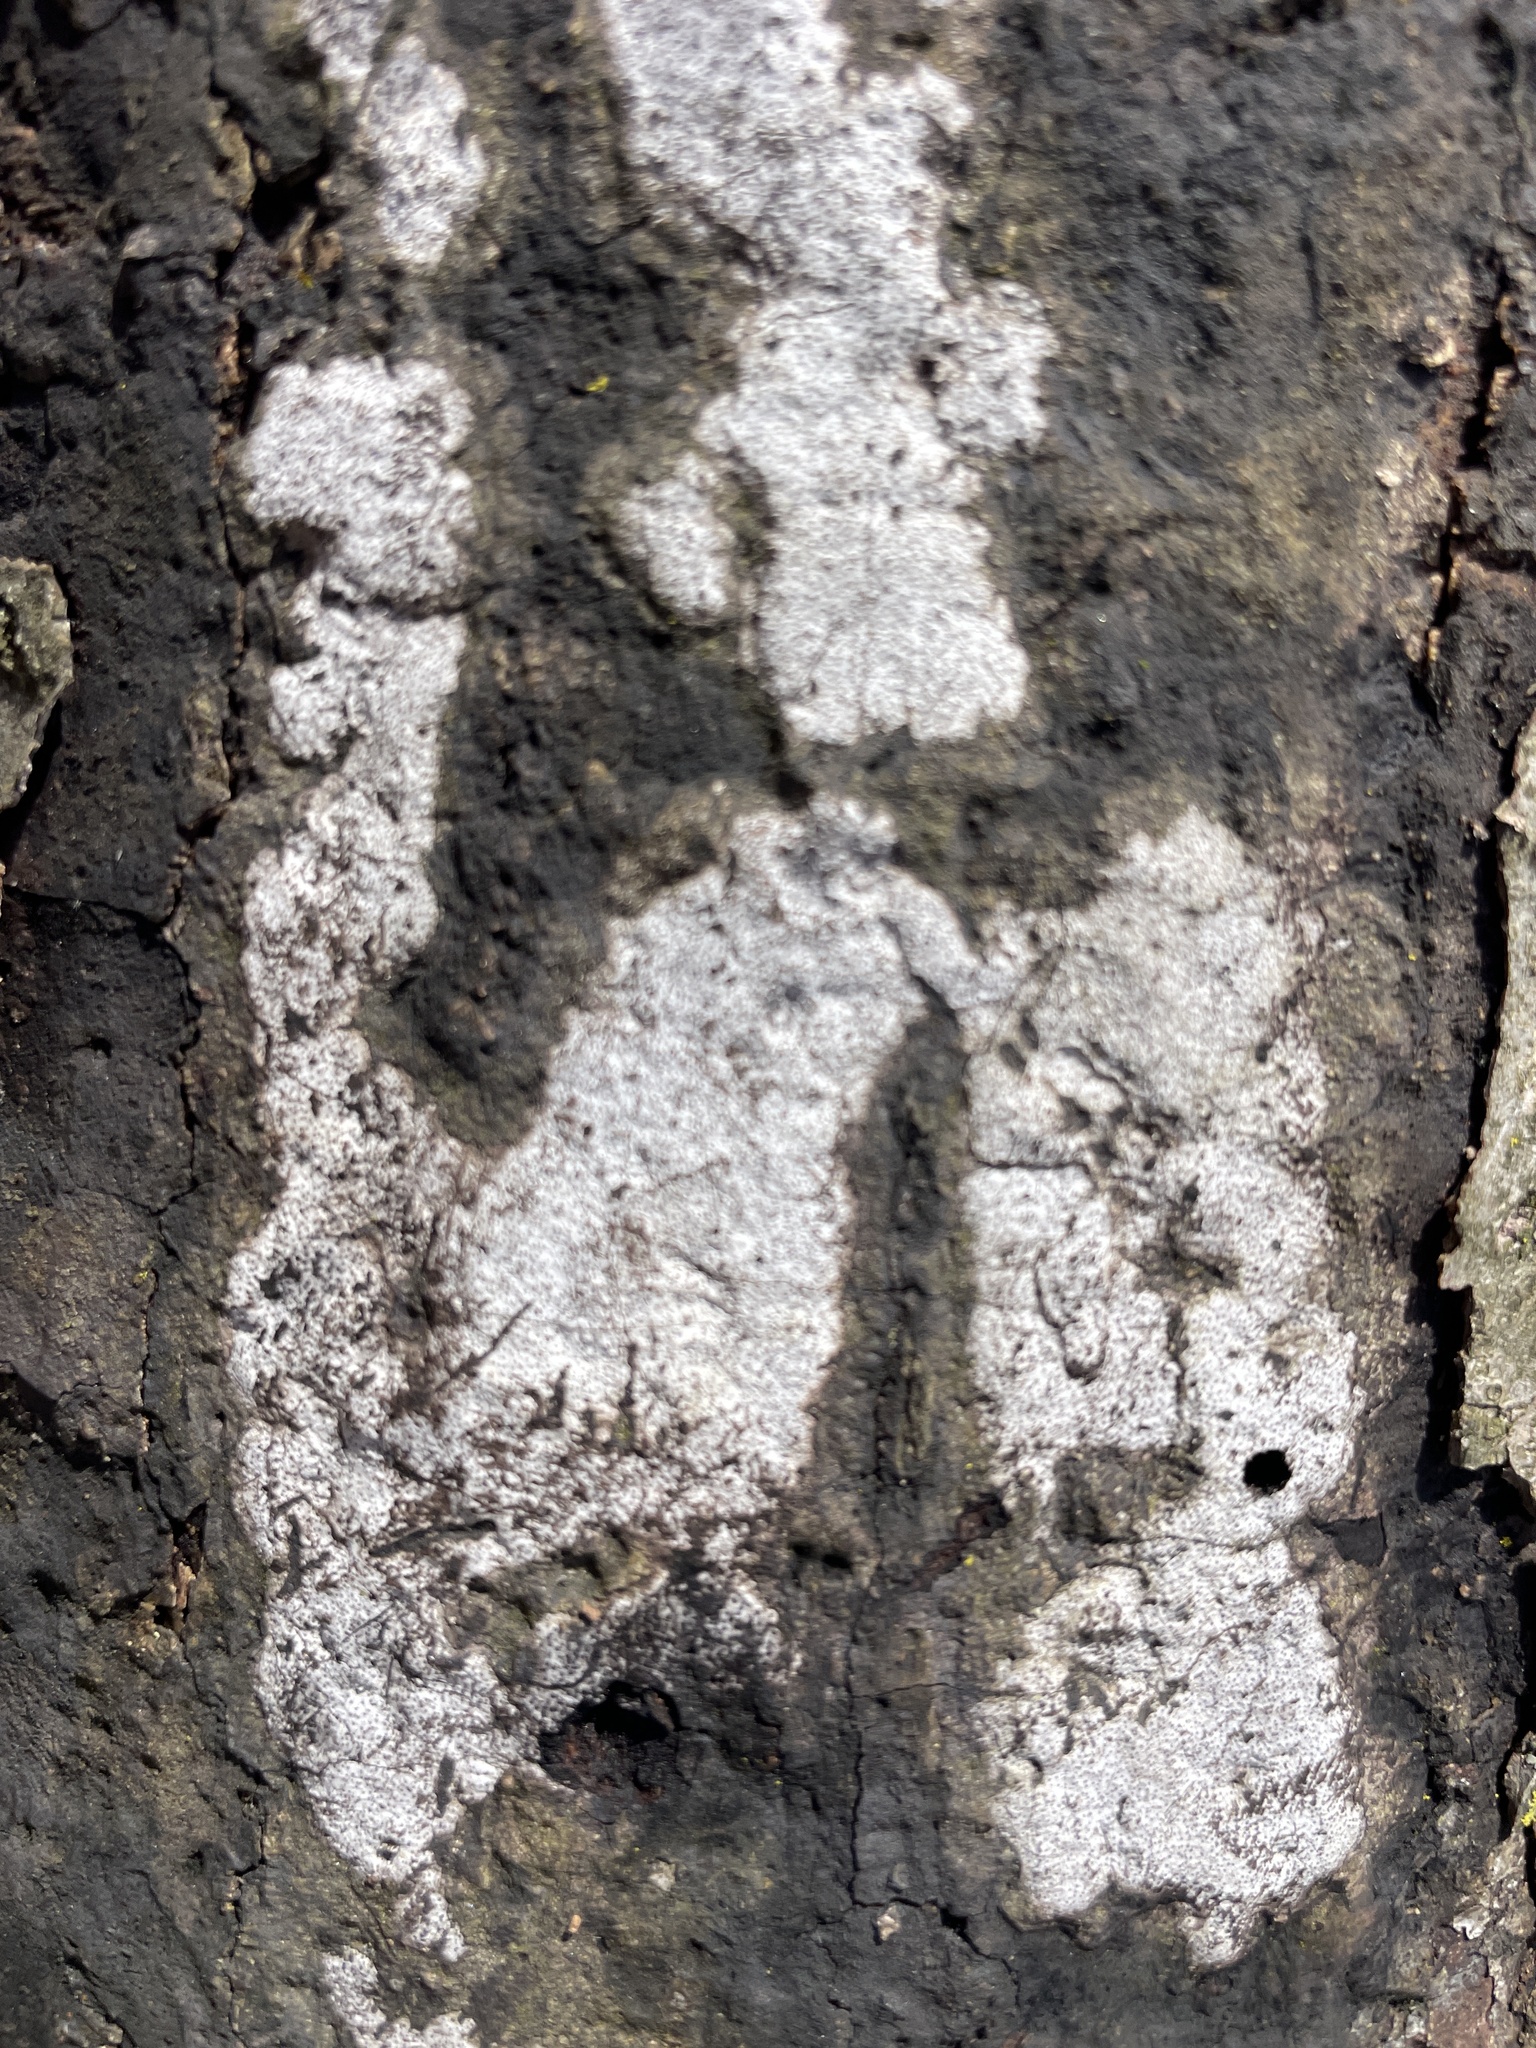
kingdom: Fungi
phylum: Ascomycota
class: Sordariomycetes
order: Xylariales
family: Graphostromataceae
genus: Biscogniauxia
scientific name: Biscogniauxia atropunctata
